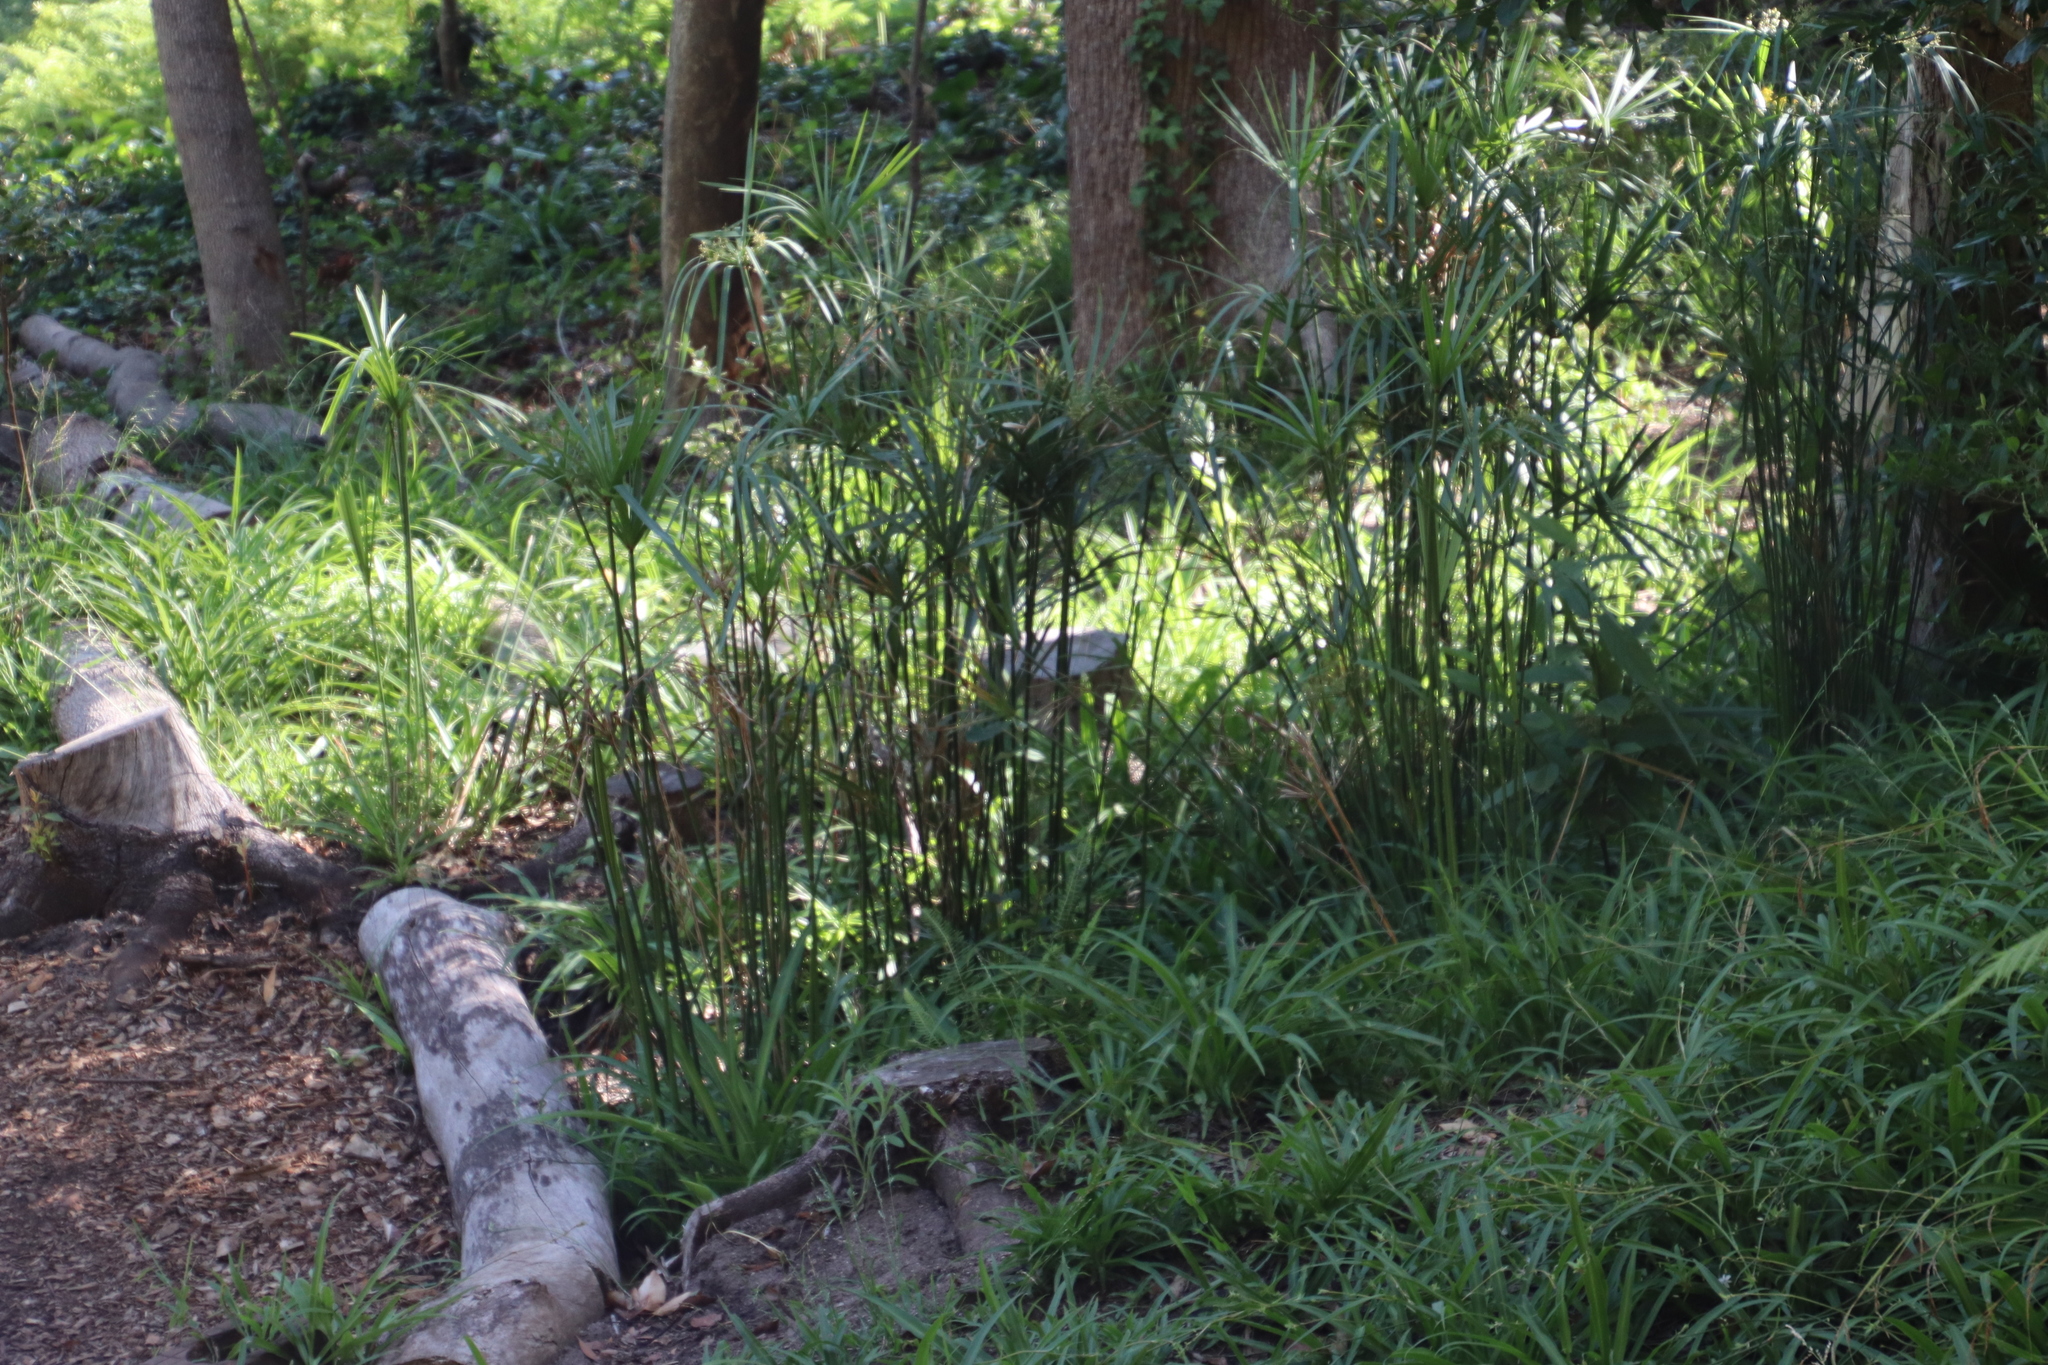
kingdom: Plantae
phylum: Tracheophyta
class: Liliopsida
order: Poales
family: Cyperaceae
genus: Cyperus
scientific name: Cyperus textilis
